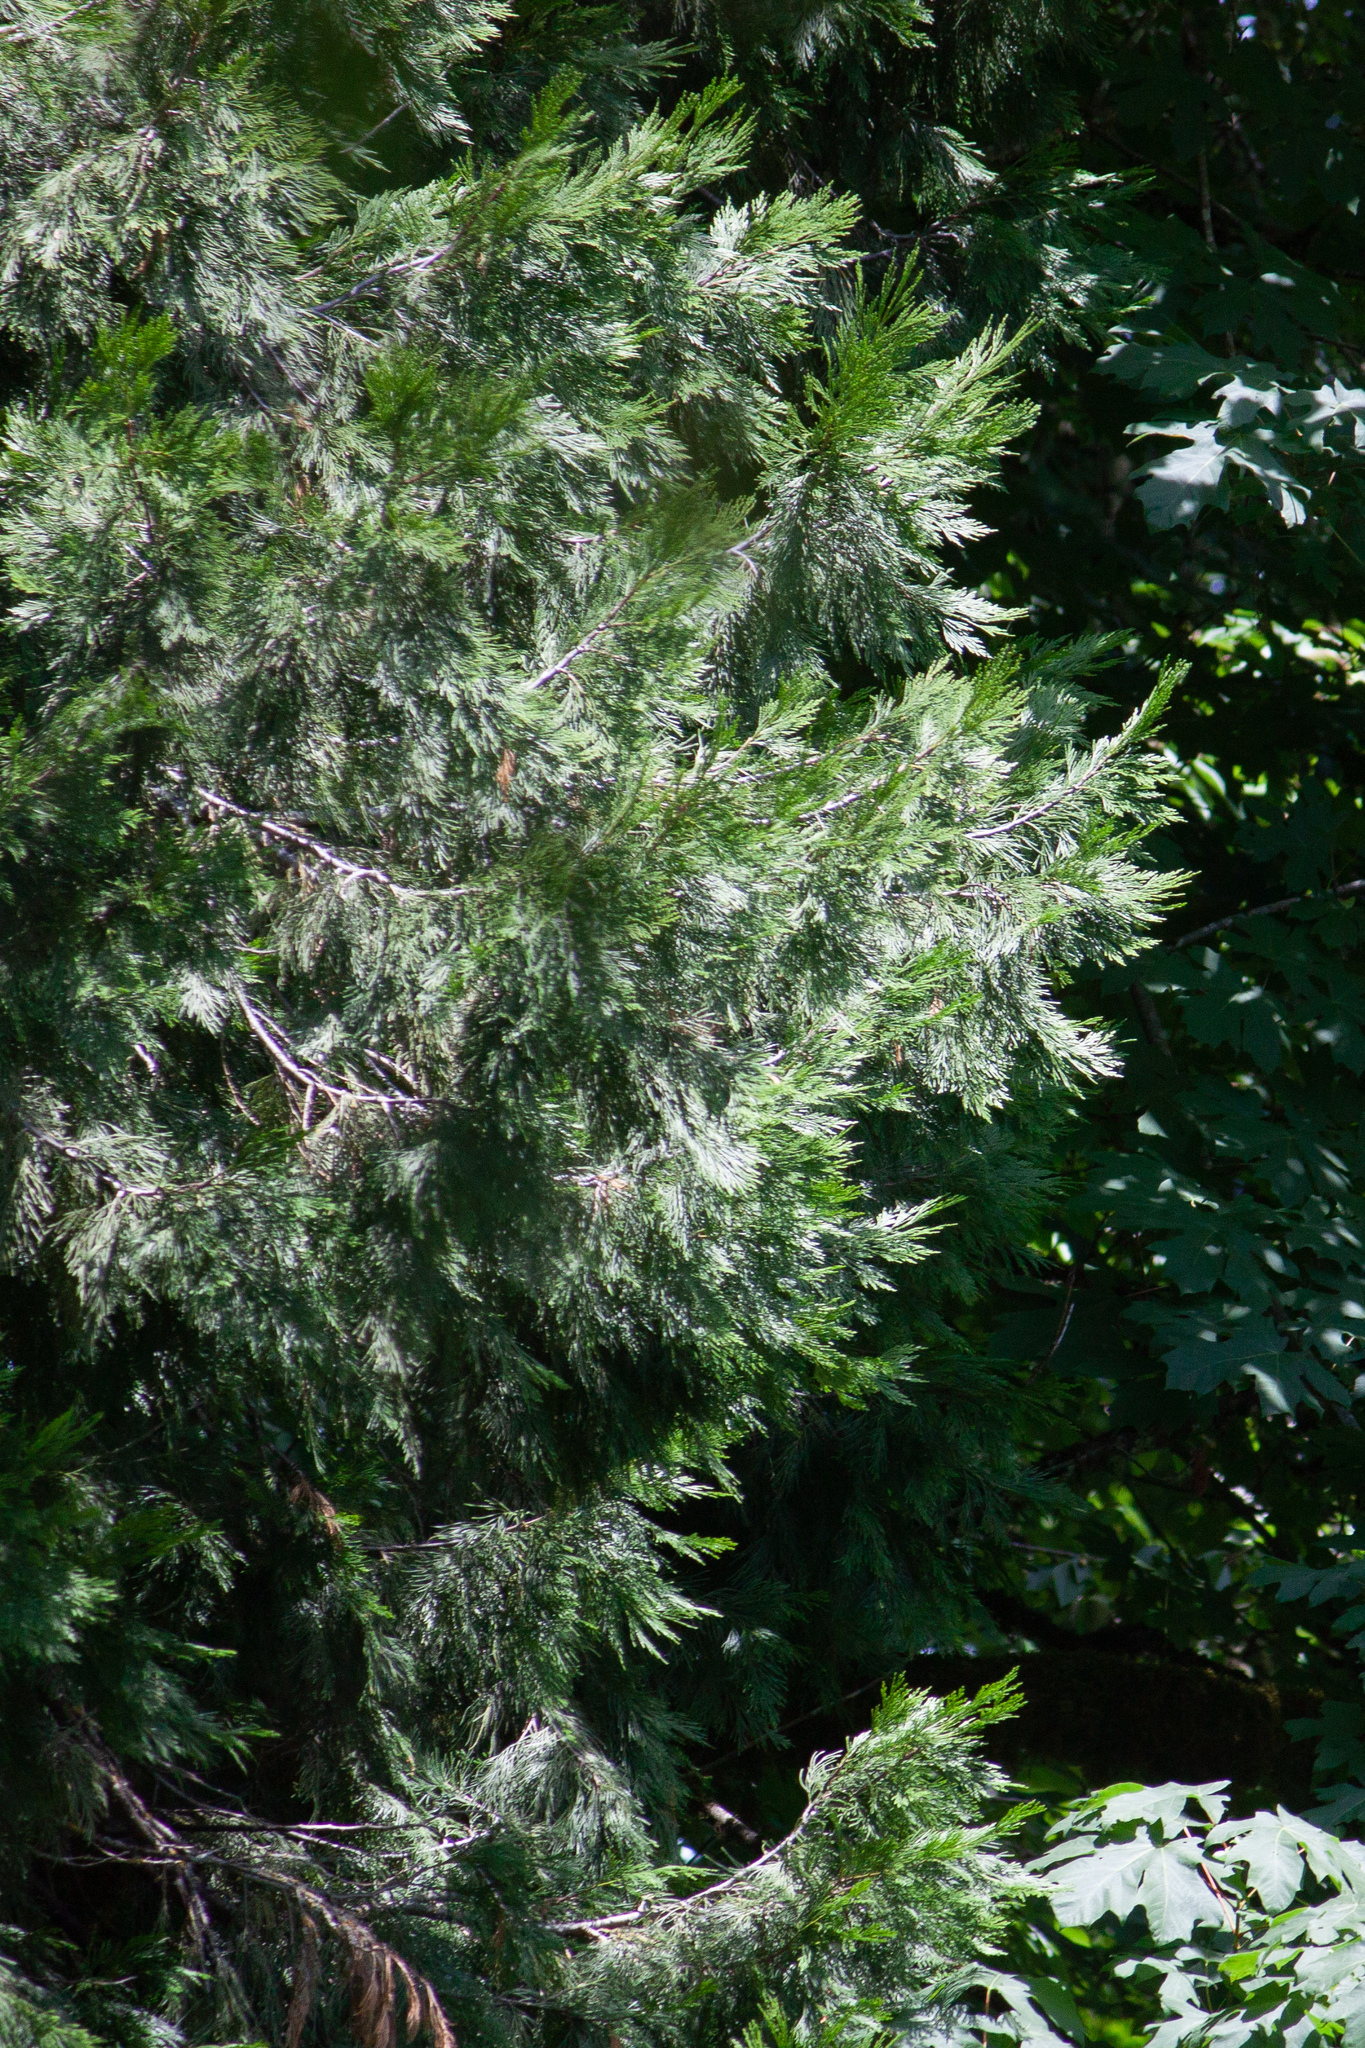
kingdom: Plantae
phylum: Tracheophyta
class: Pinopsida
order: Pinales
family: Cupressaceae
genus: Calocedrus
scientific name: Calocedrus decurrens
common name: Californian incense-cedar
